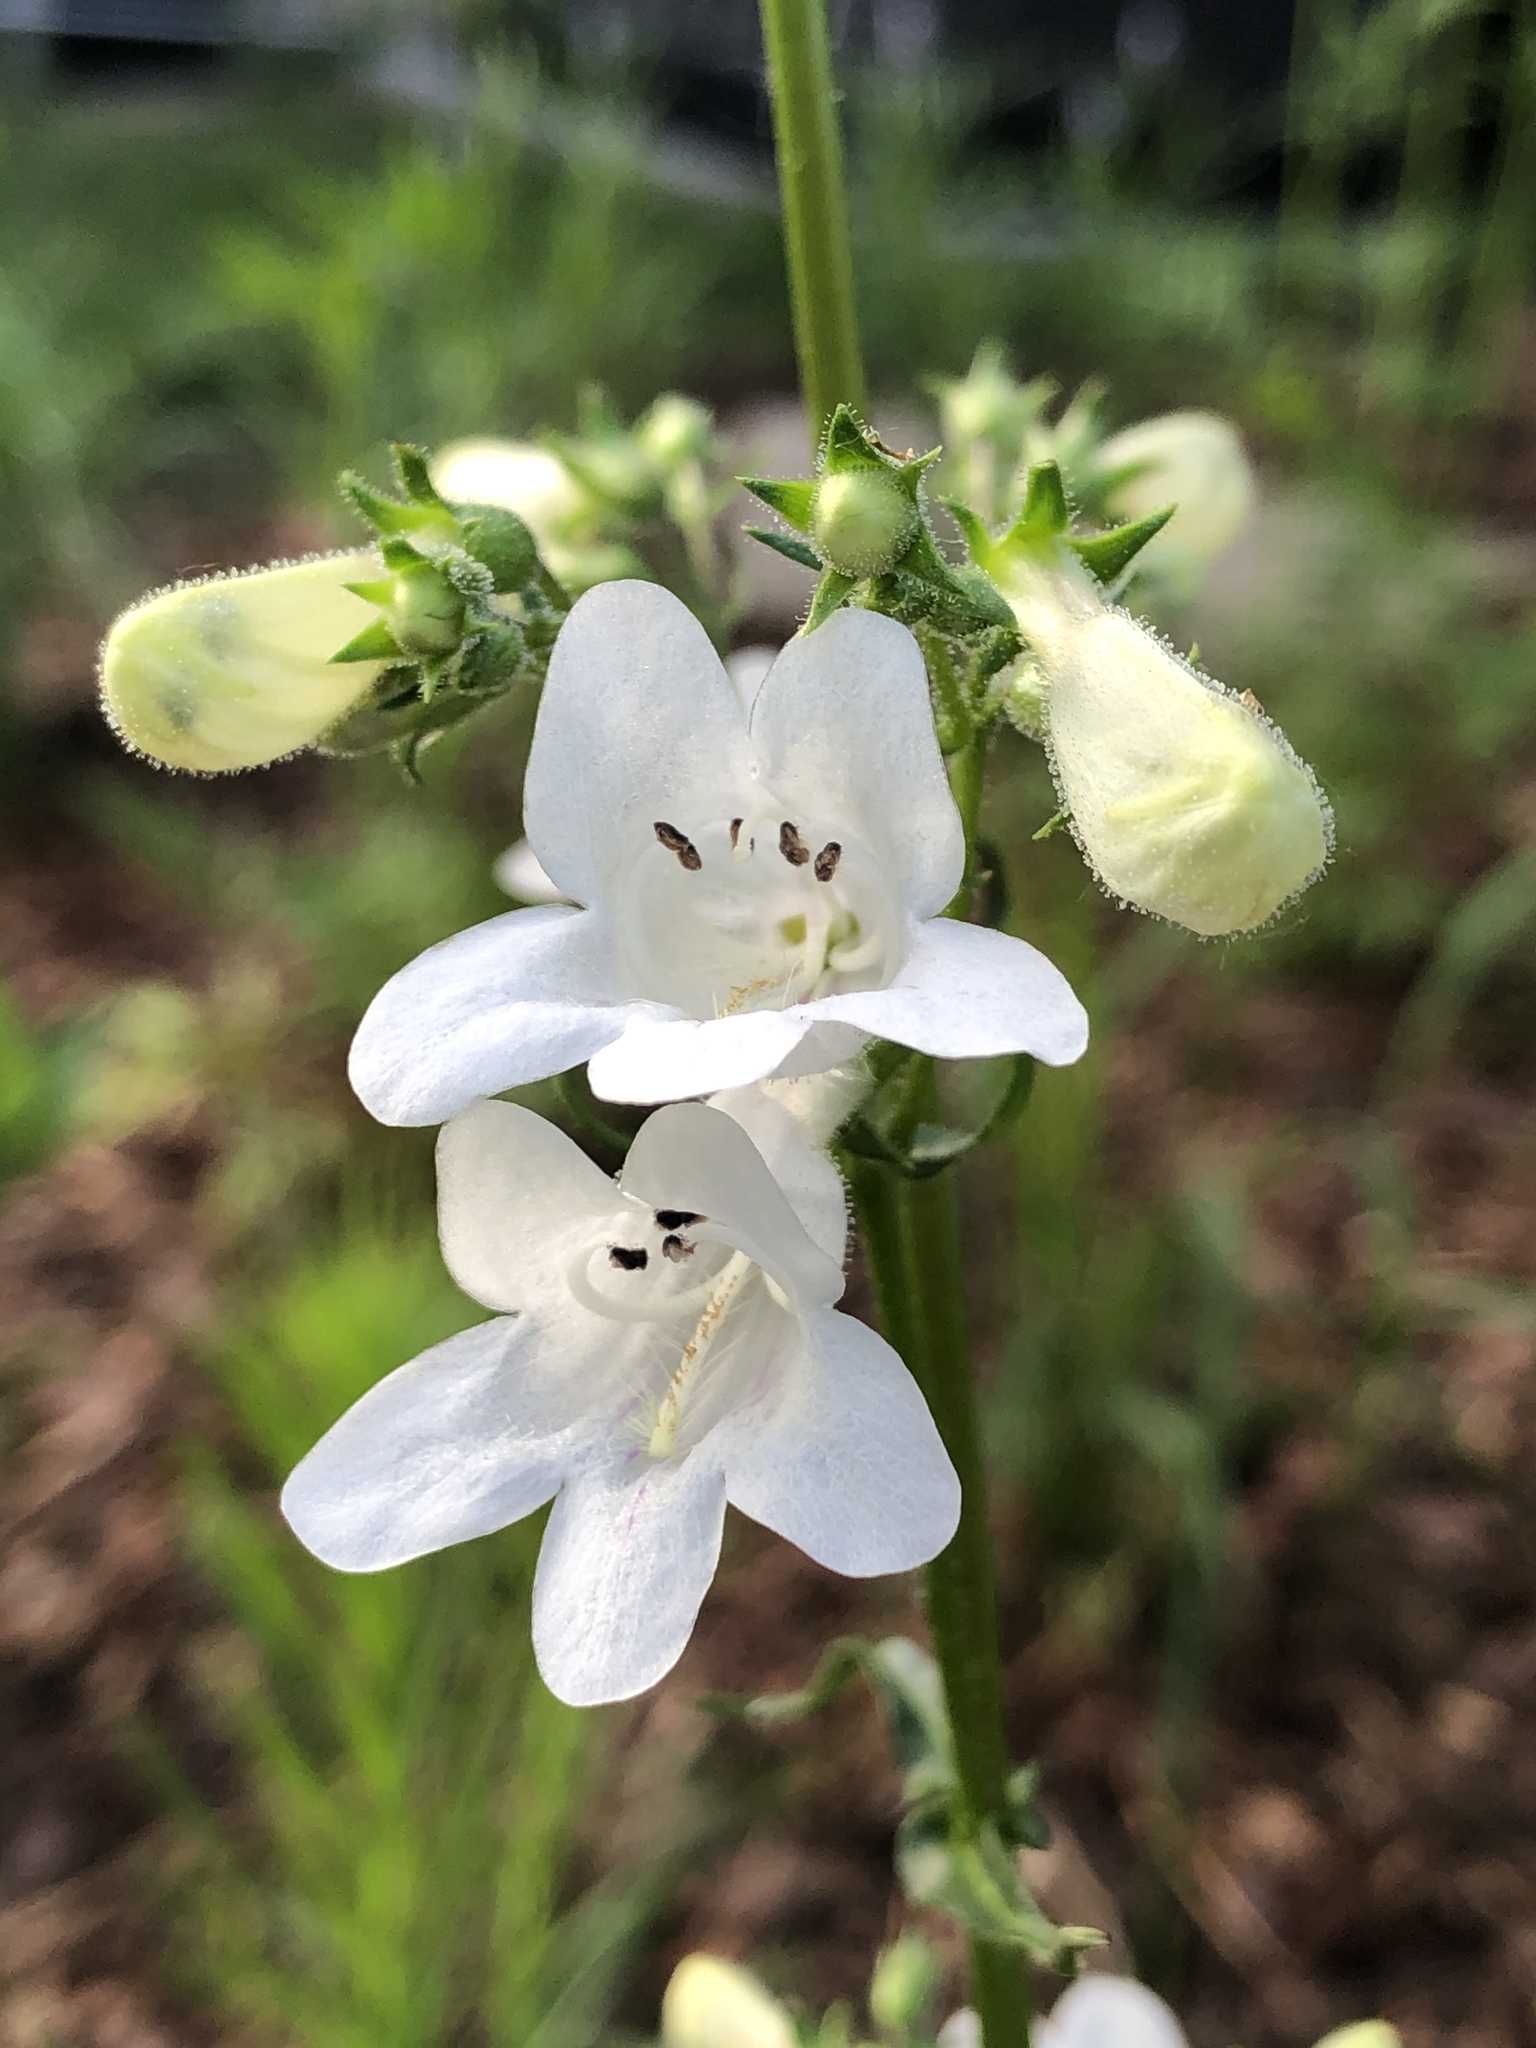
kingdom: Plantae
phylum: Tracheophyta
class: Magnoliopsida
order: Lamiales
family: Plantaginaceae
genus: Penstemon
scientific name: Penstemon digitalis
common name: Foxglove beardtongue
